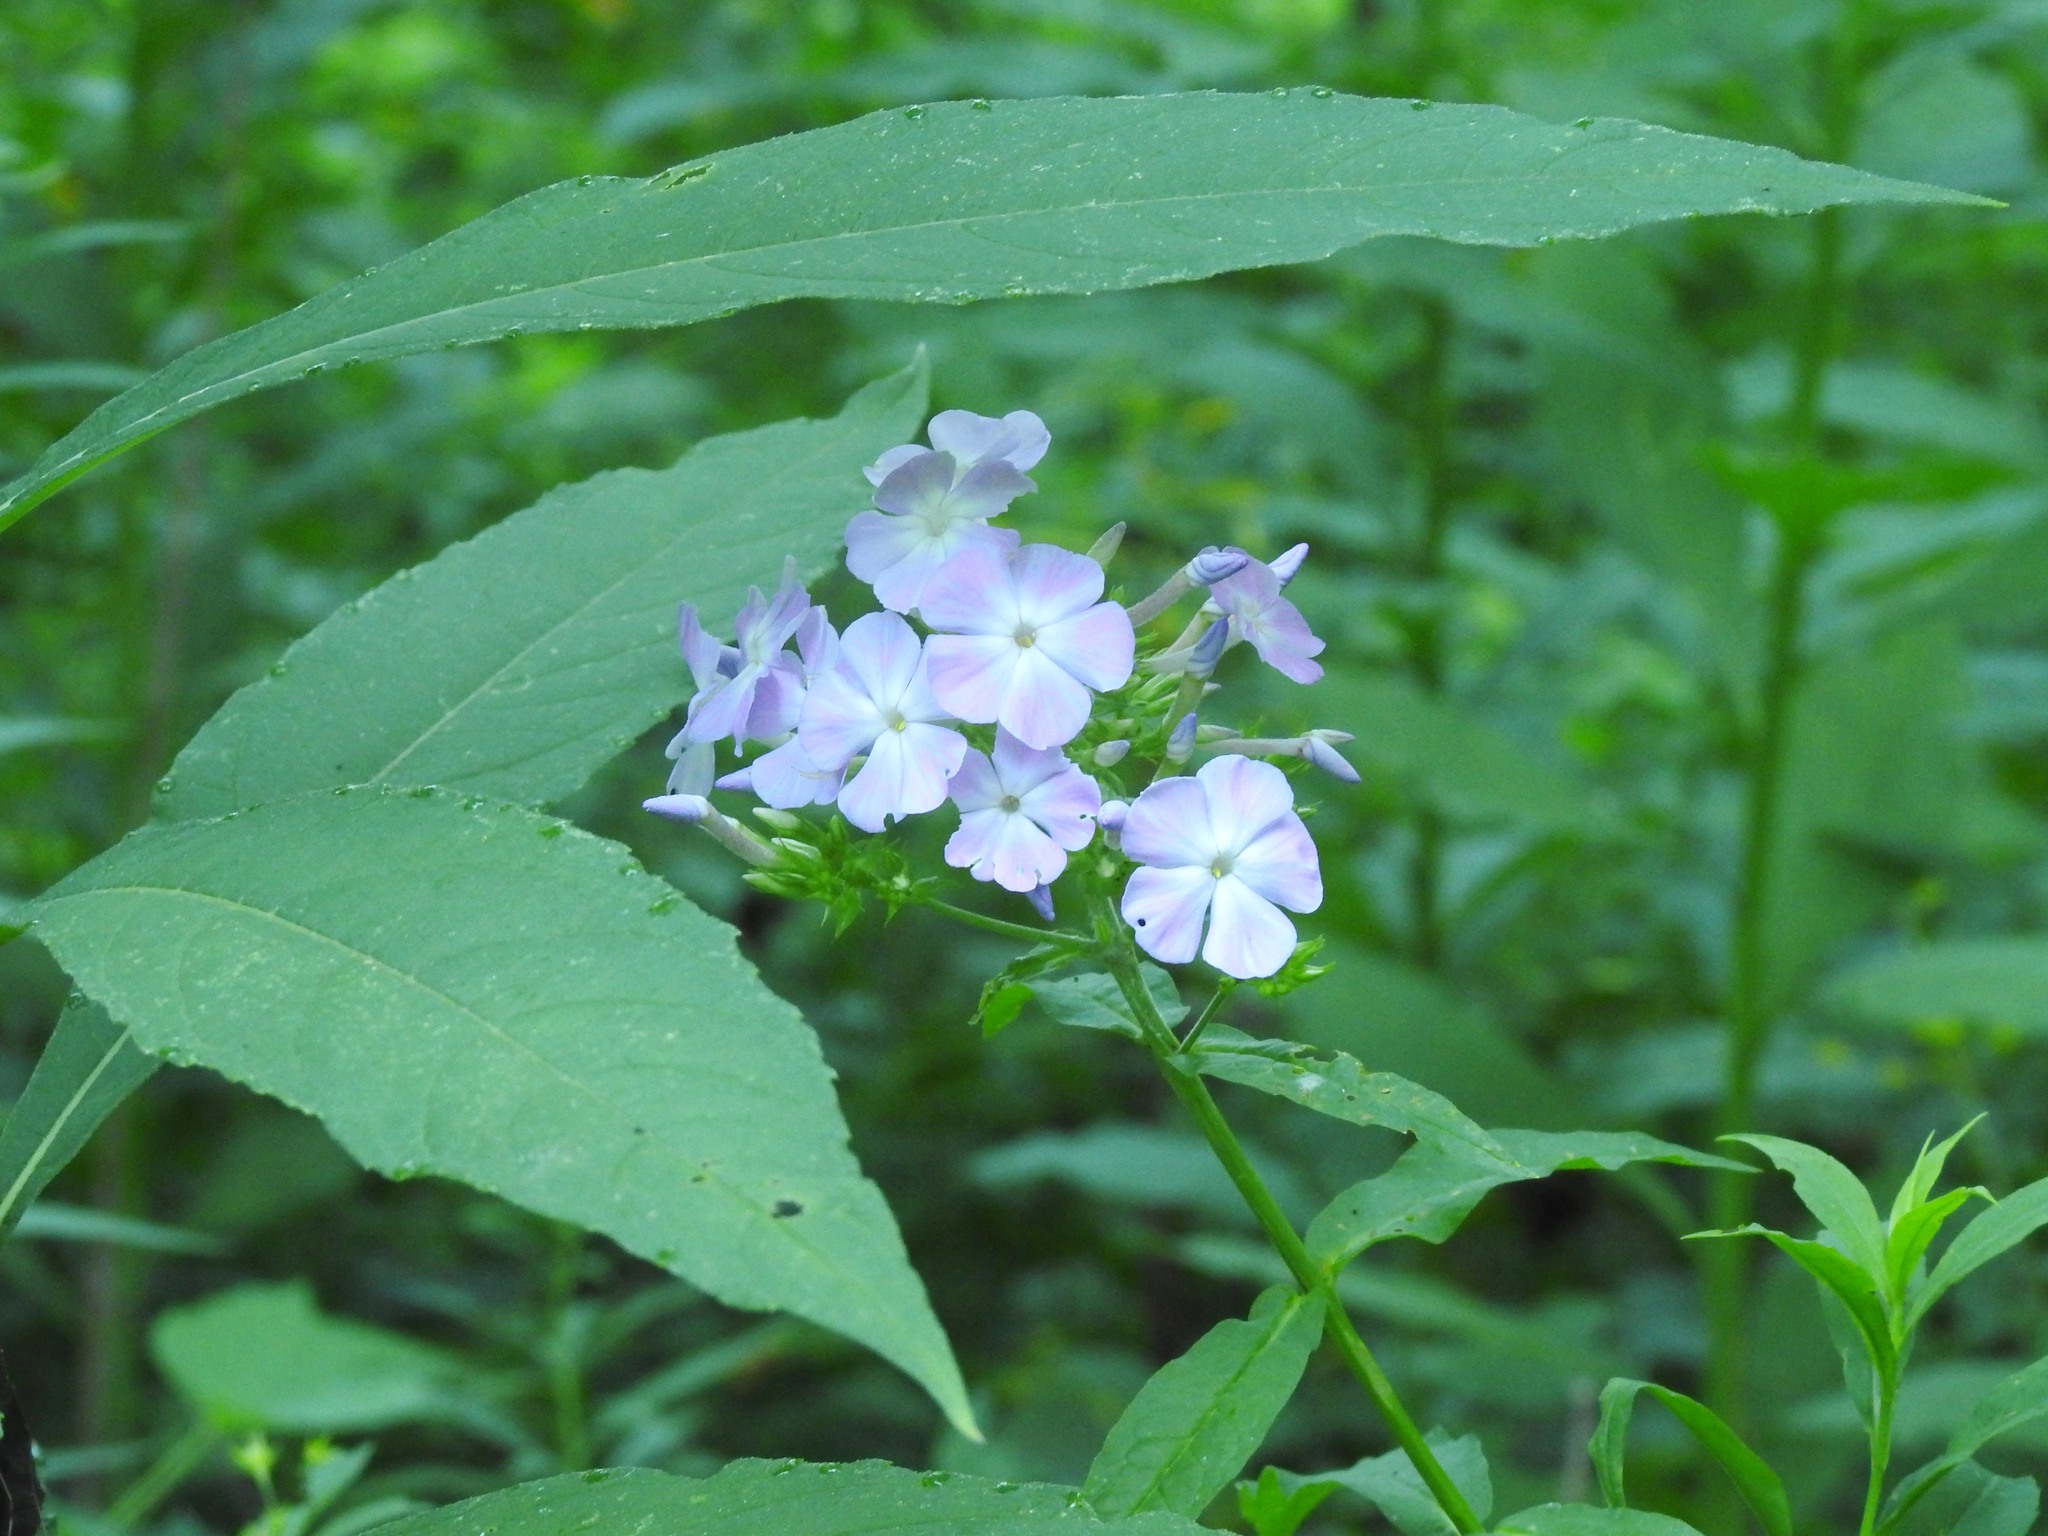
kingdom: Plantae
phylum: Tracheophyta
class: Magnoliopsida
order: Ericales
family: Polemoniaceae
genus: Phlox
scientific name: Phlox paniculata
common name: Fall phlox
